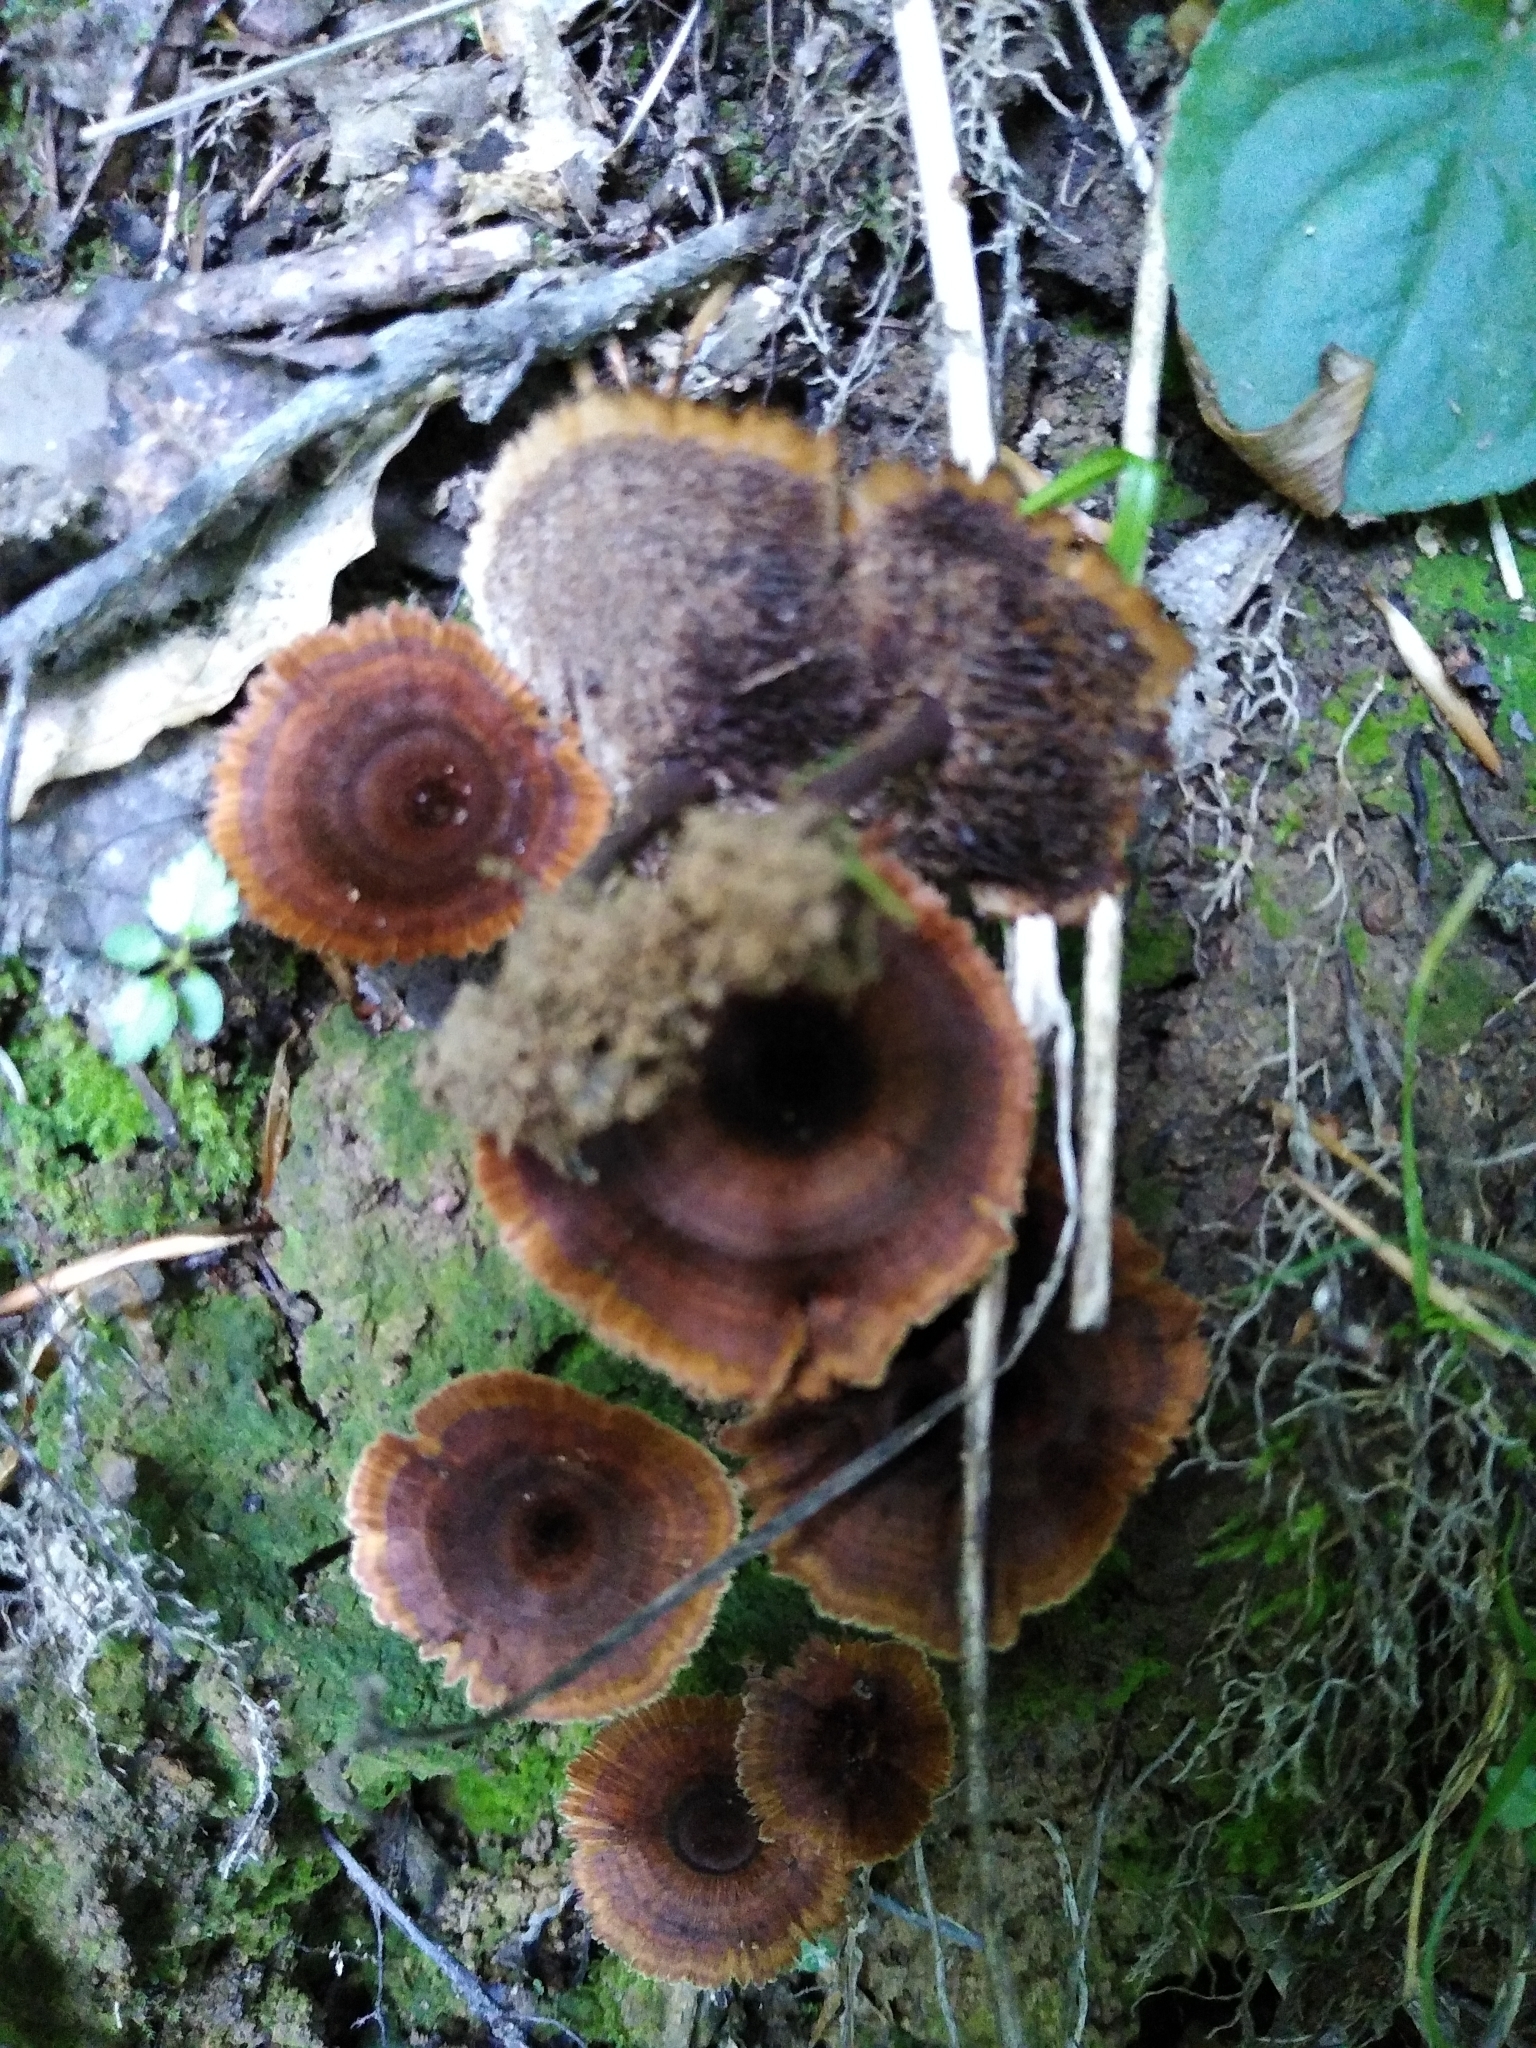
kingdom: Fungi
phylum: Basidiomycota
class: Agaricomycetes
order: Hymenochaetales
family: Hymenochaetaceae
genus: Coltricia
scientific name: Coltricia cinnamomea
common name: Shiny cinnamon polypore
